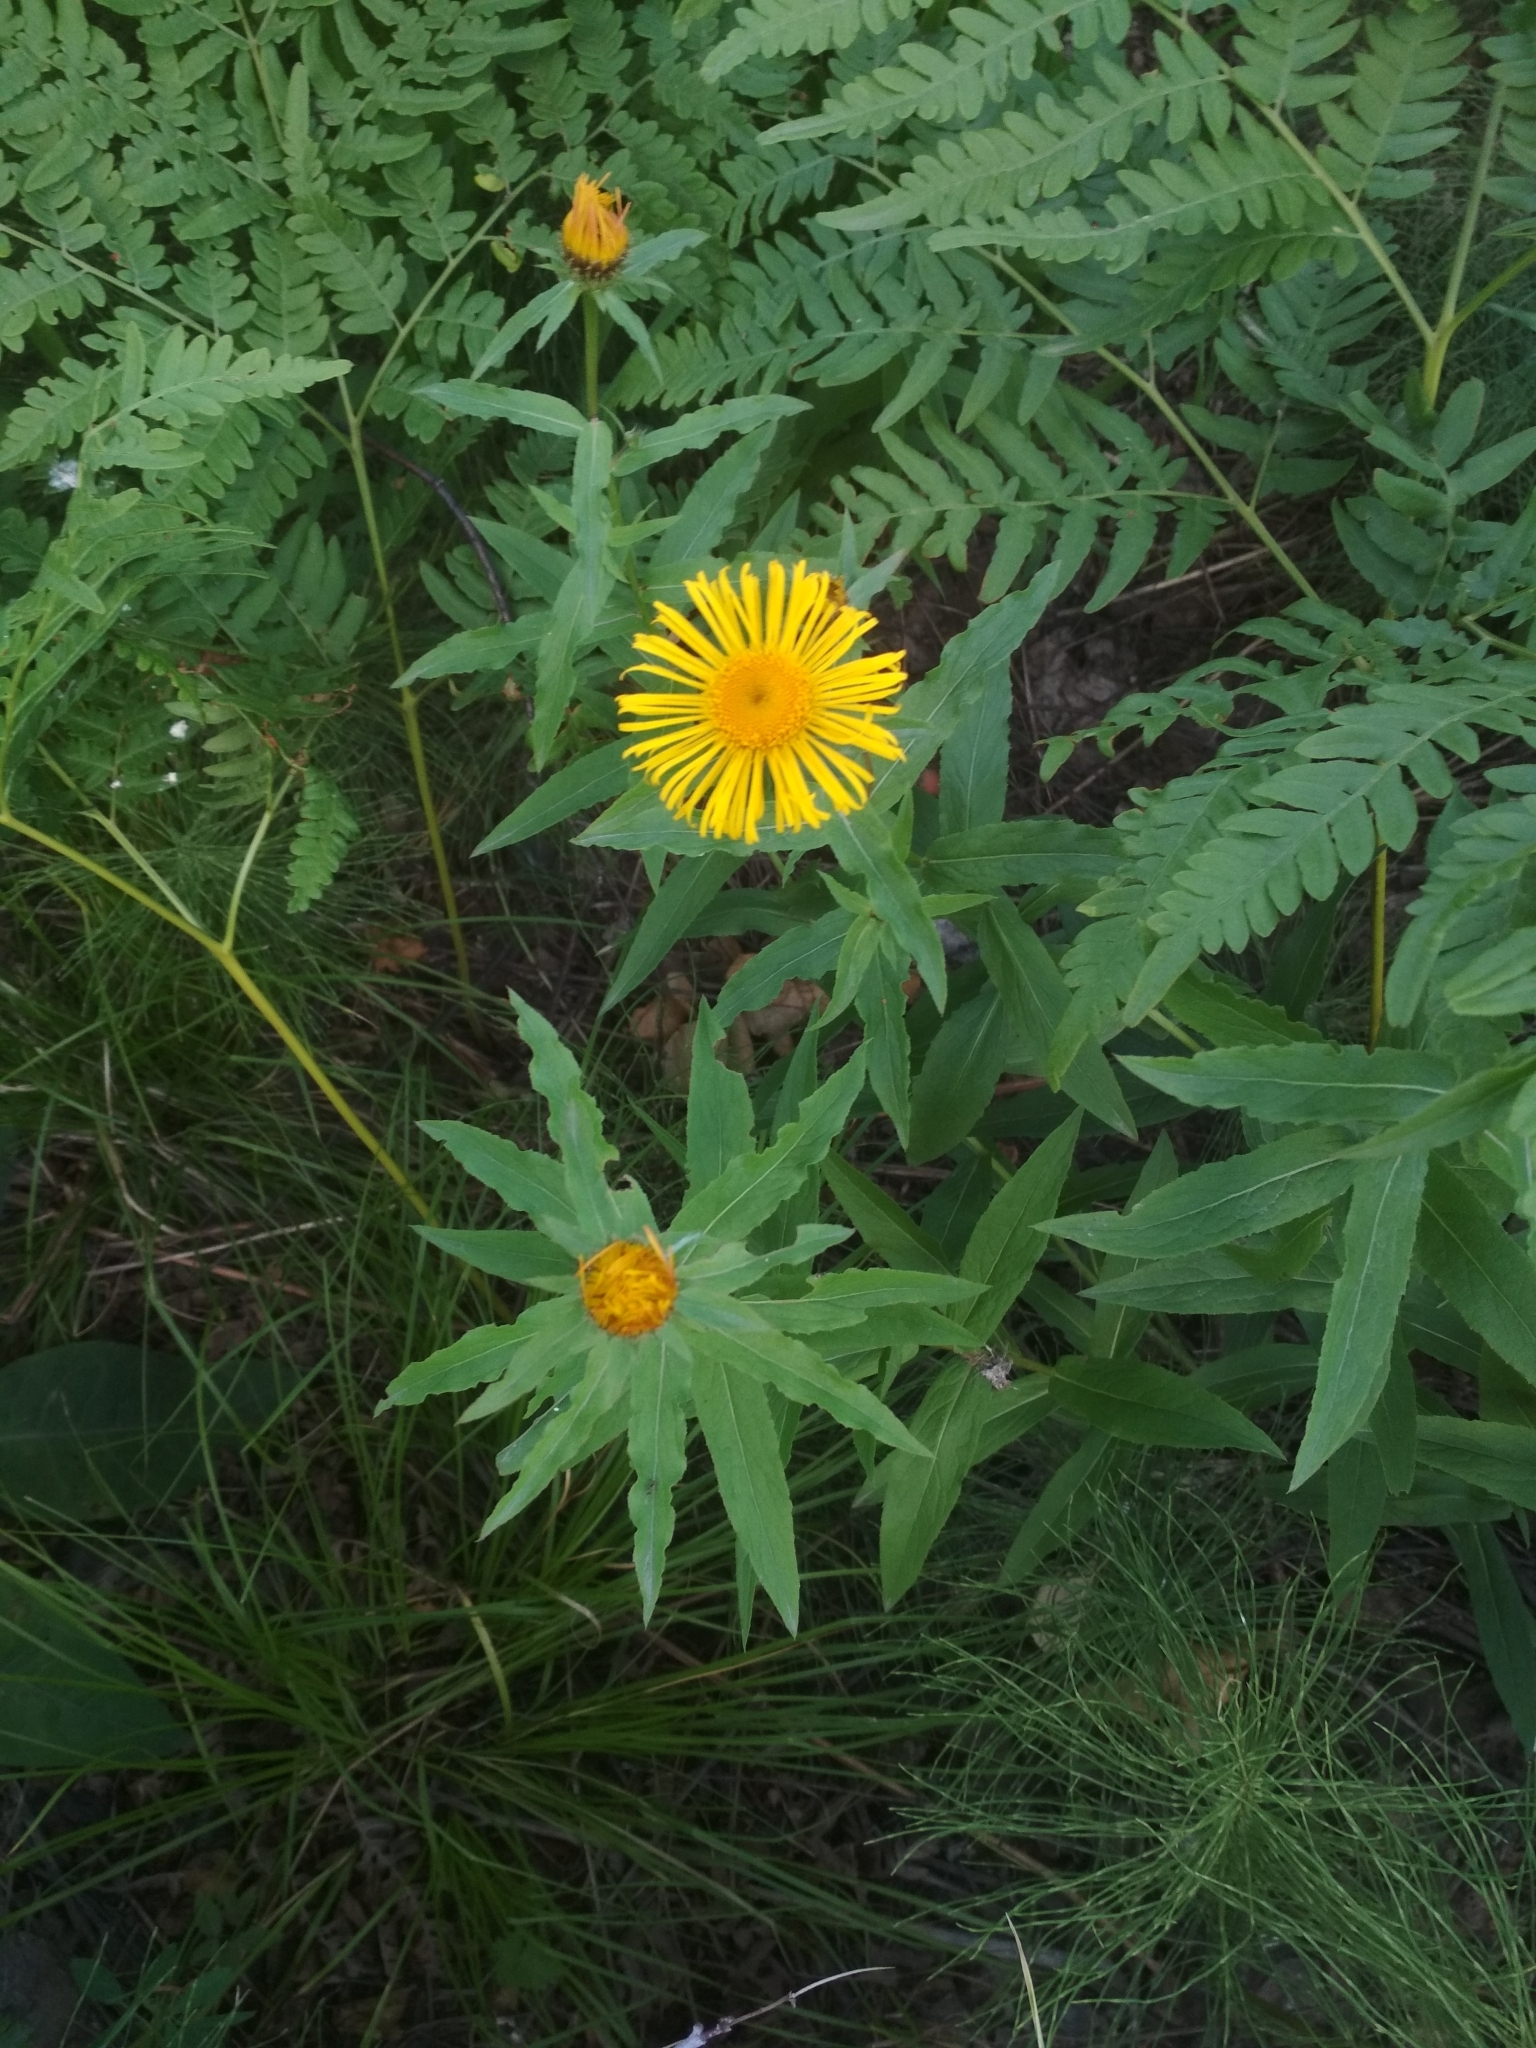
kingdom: Plantae
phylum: Tracheophyta
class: Magnoliopsida
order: Asterales
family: Asteraceae
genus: Pentanema
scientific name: Pentanema salicinum
